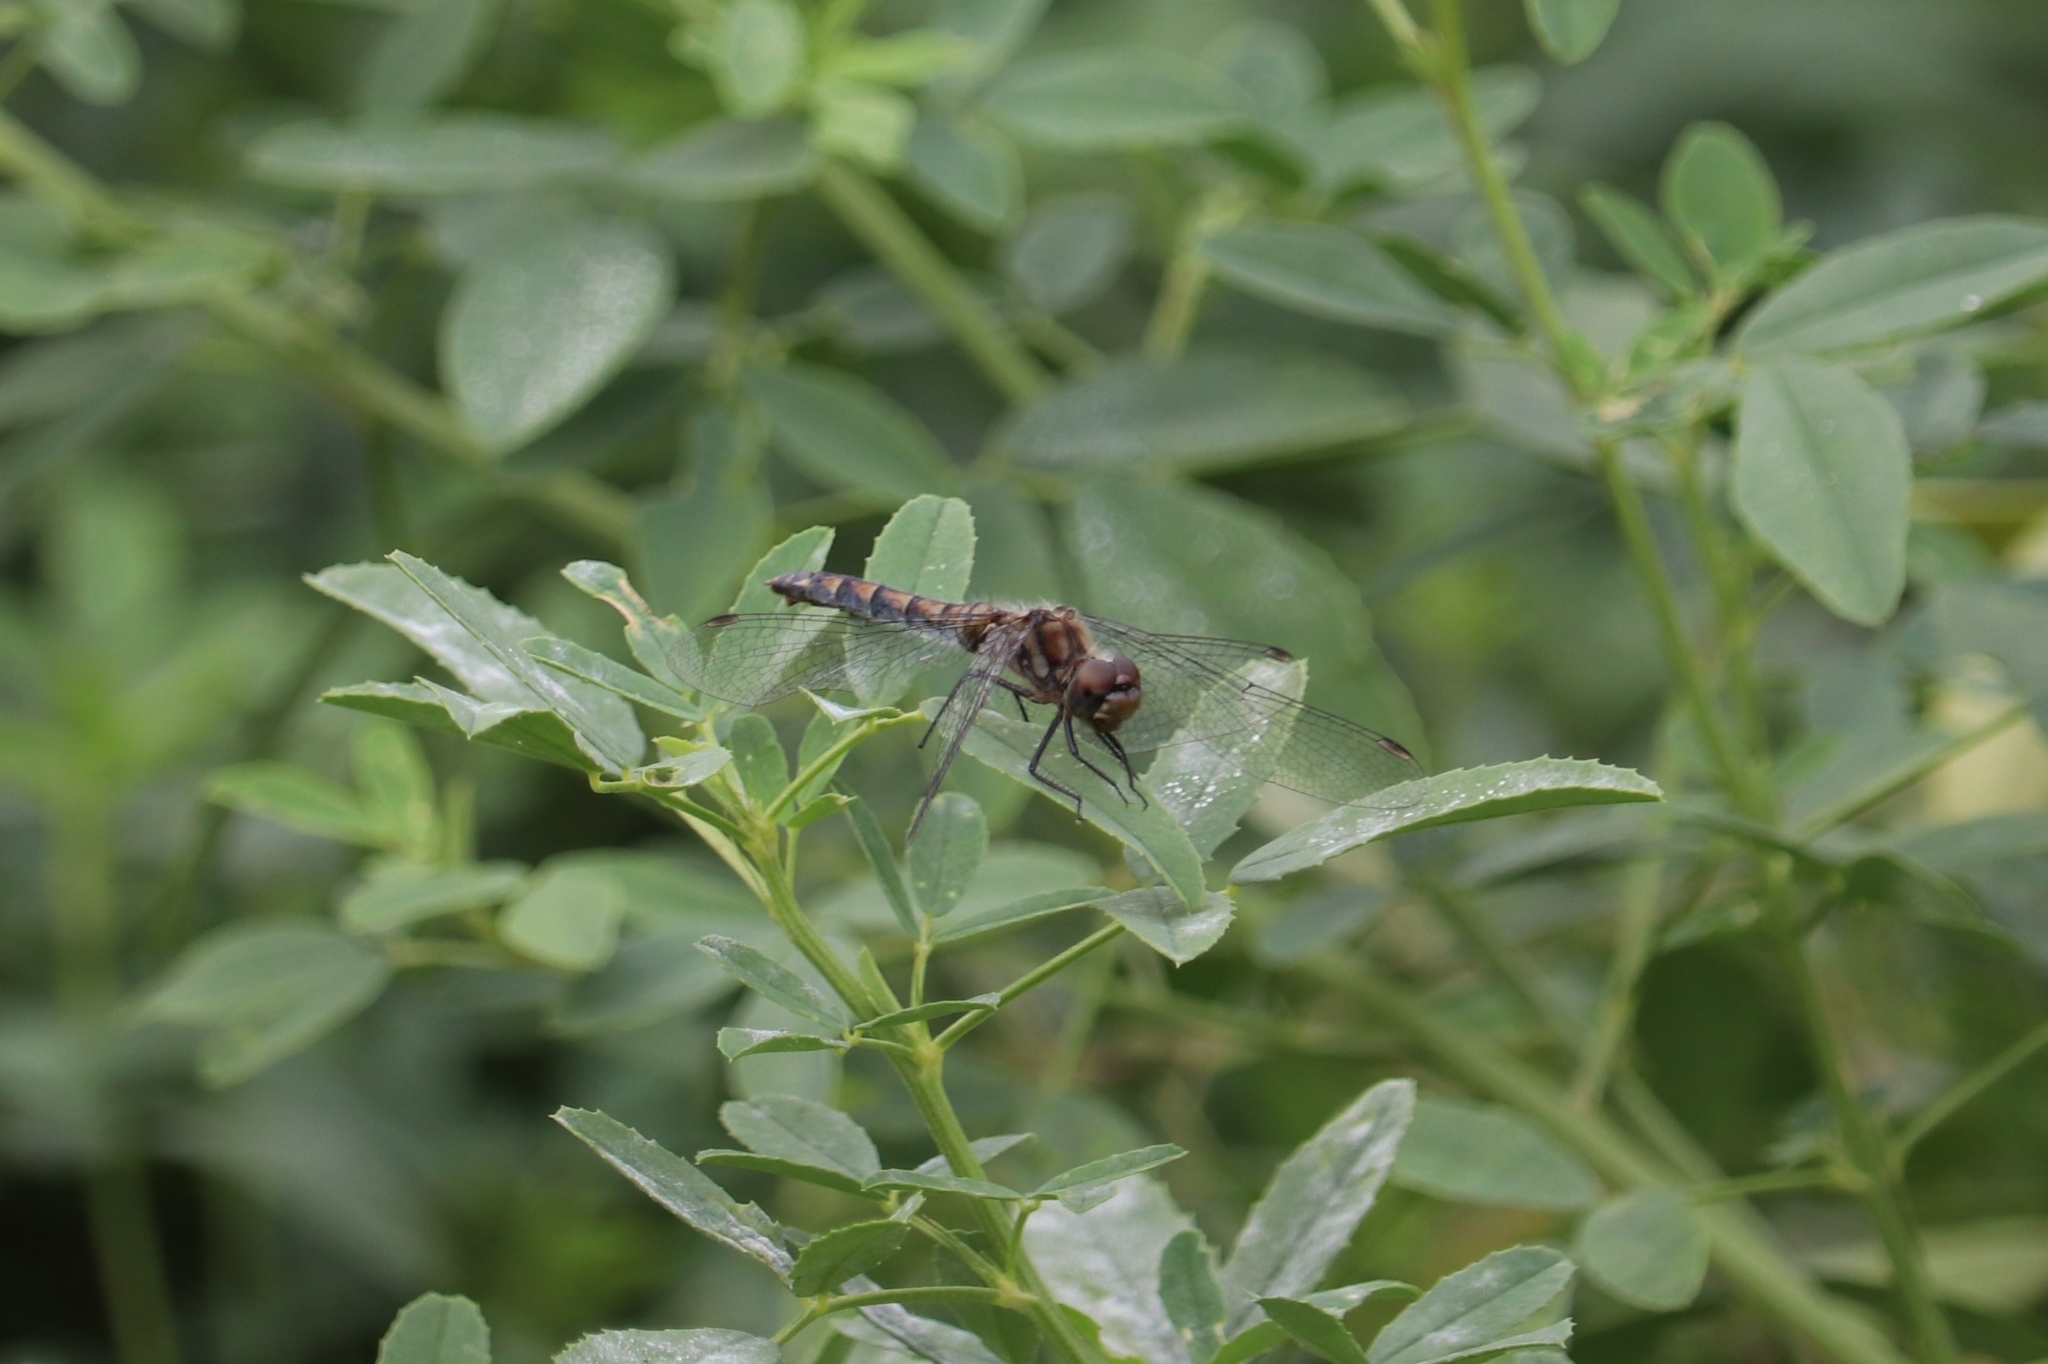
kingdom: Animalia
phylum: Arthropoda
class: Insecta
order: Odonata
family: Libellulidae
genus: Sympetrum
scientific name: Sympetrum danae
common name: Black darter
